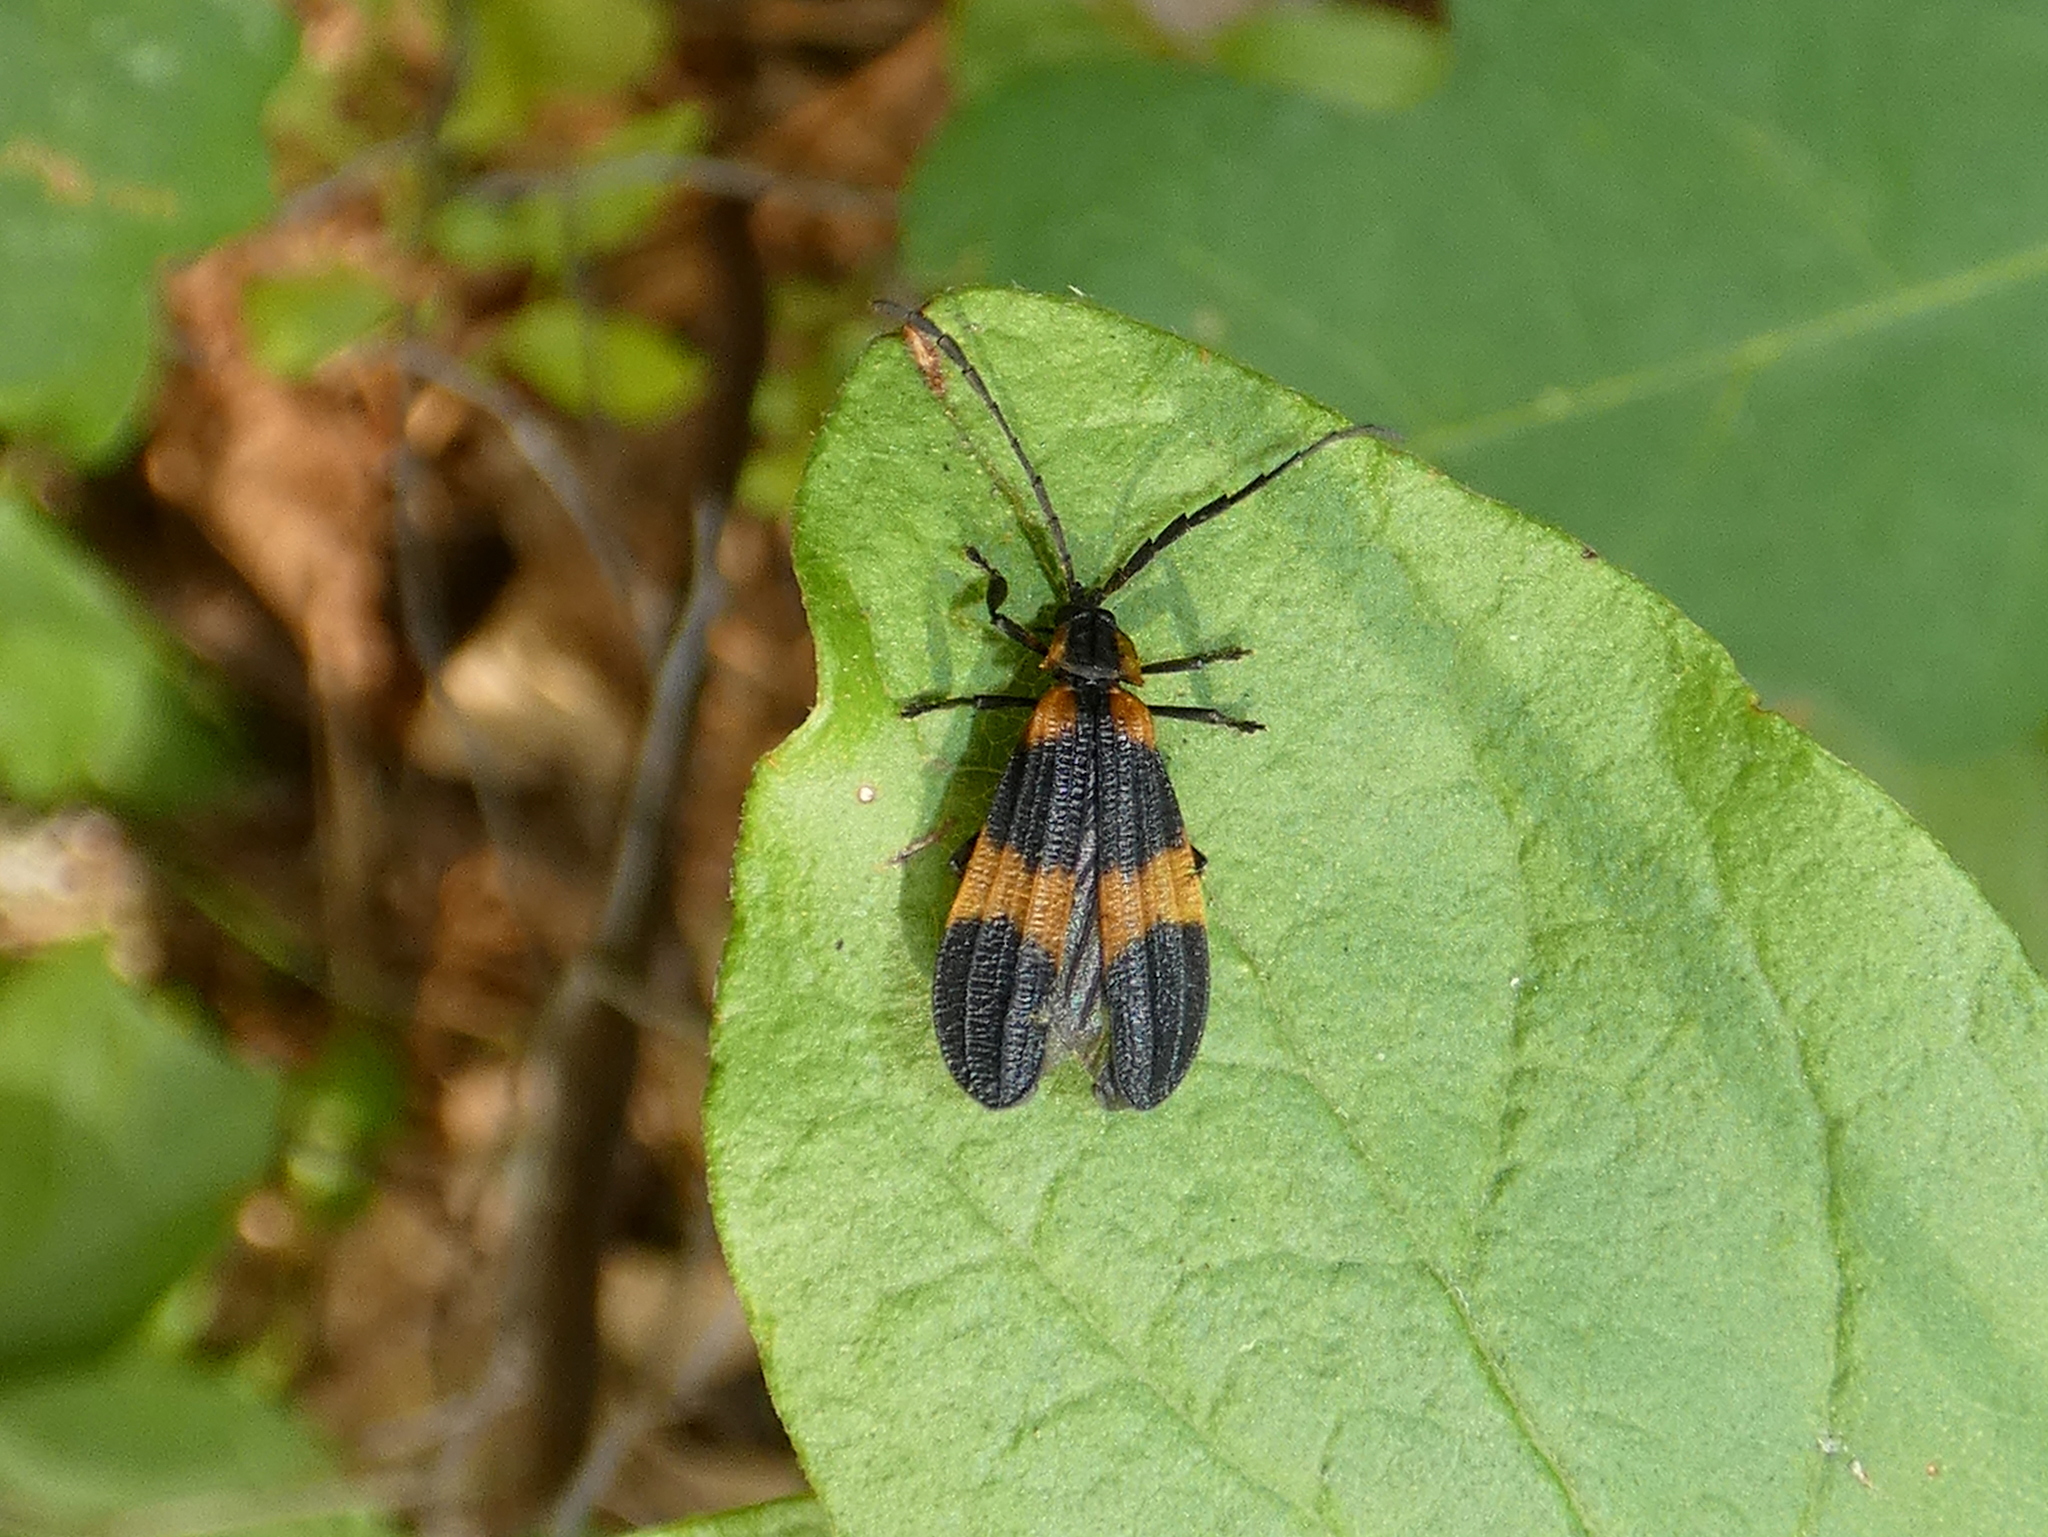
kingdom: Animalia
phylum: Arthropoda
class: Insecta
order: Coleoptera
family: Lycidae
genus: Calopteron
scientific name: Calopteron reticulatum
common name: Banded net-winged beetle
